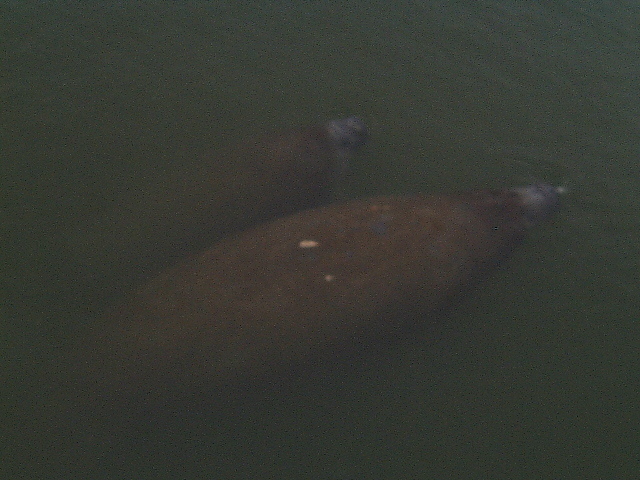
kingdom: Animalia
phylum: Chordata
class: Mammalia
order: Sirenia
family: Trichechidae
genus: Trichechus
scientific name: Trichechus manatus
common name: West indian manatee
